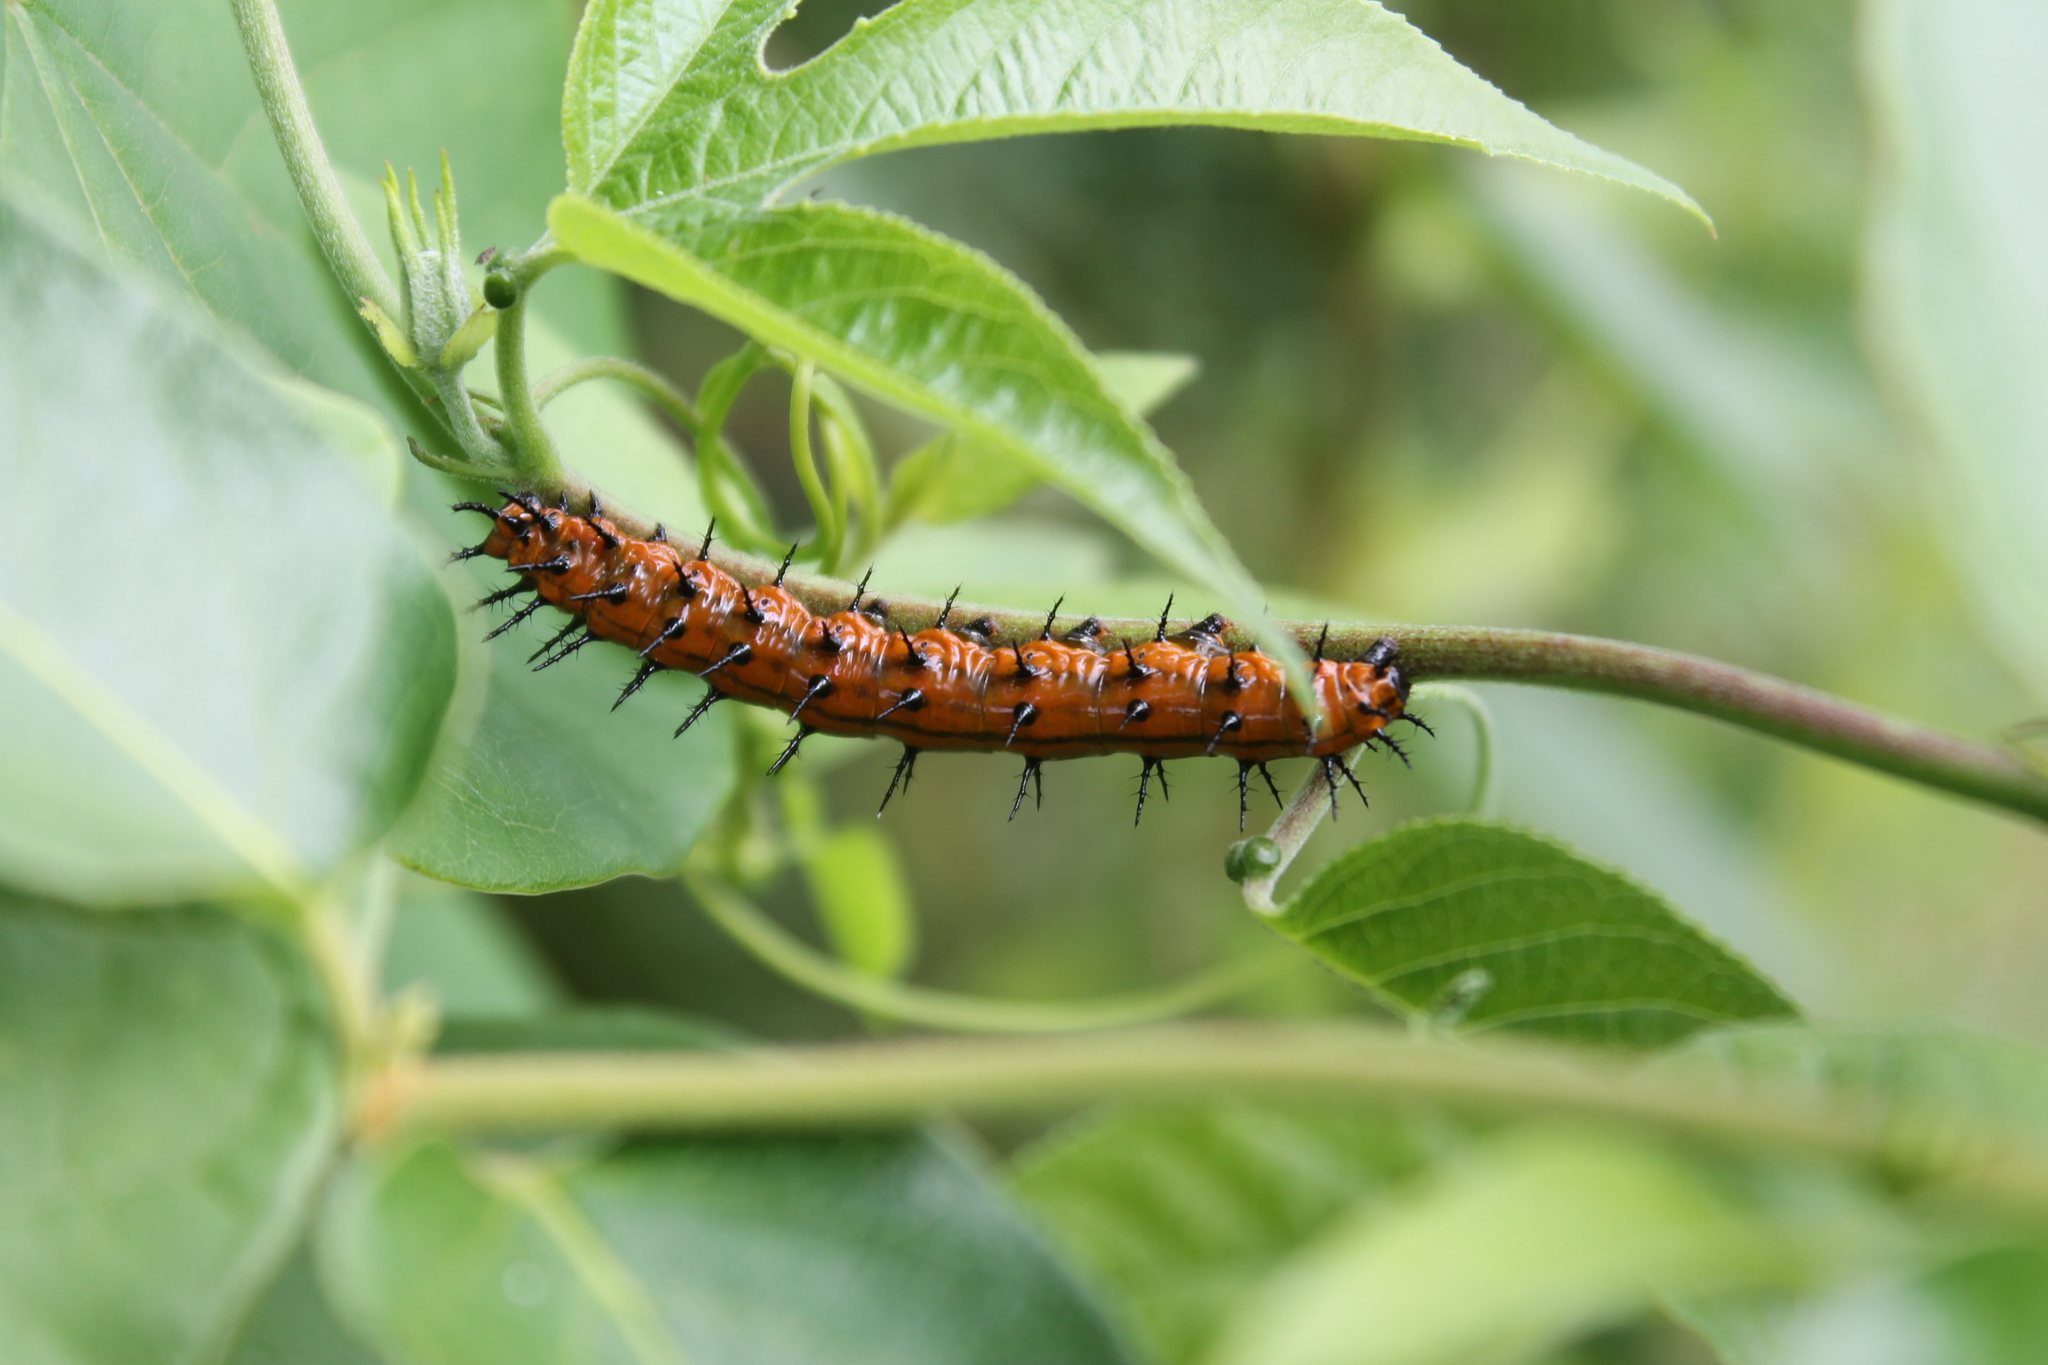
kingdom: Animalia
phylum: Arthropoda
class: Insecta
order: Lepidoptera
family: Nymphalidae
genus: Dione
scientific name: Dione vanillae
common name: Gulf fritillary
